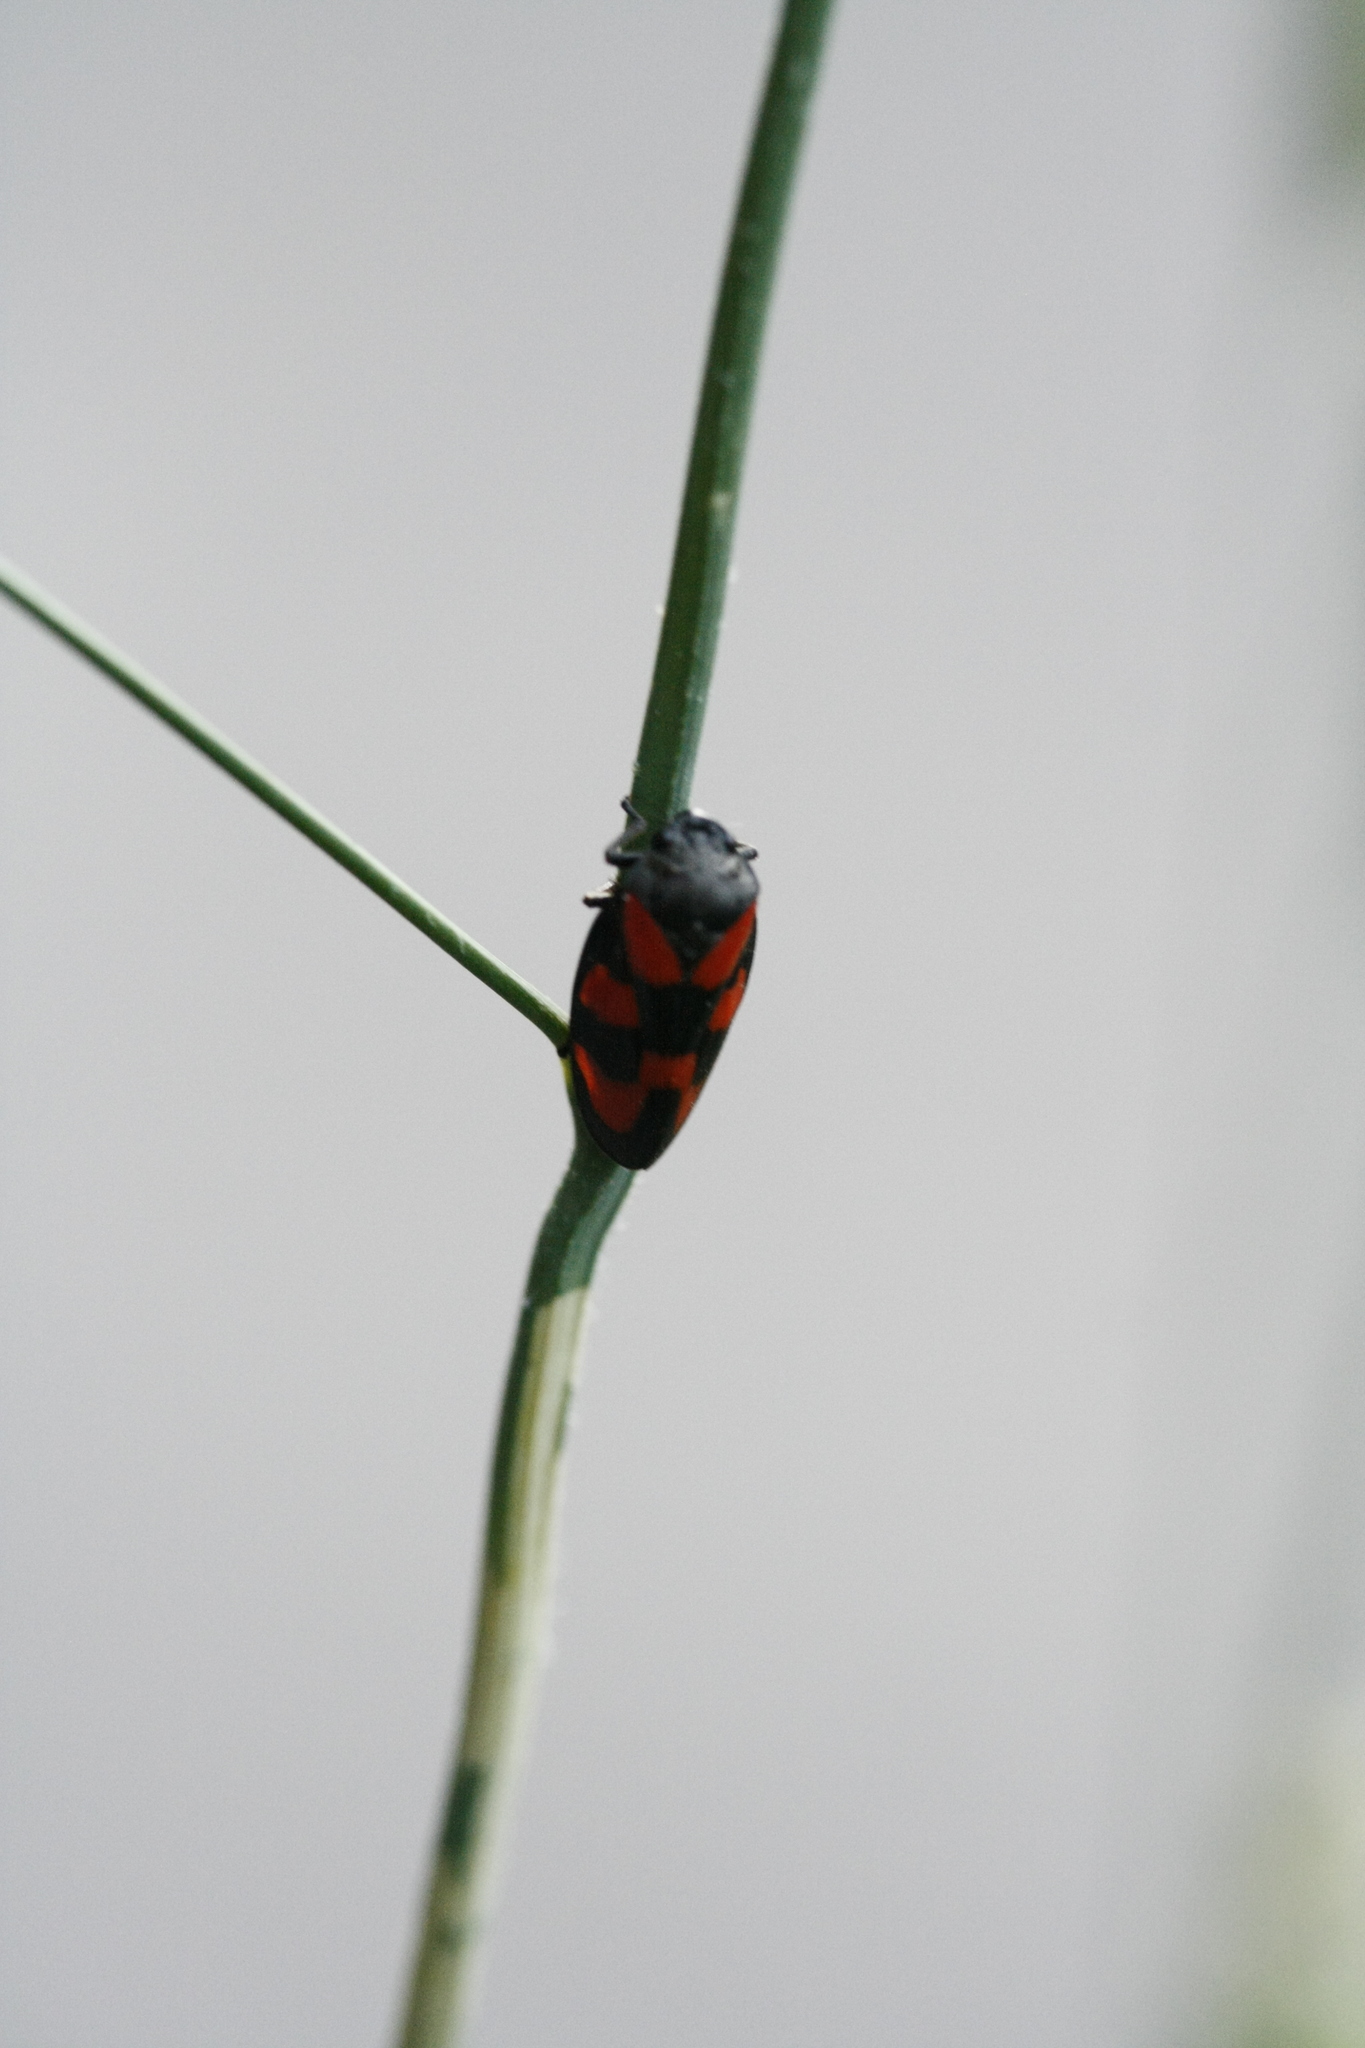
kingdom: Animalia
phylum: Arthropoda
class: Insecta
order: Hemiptera
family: Cercopidae
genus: Cercopis
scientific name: Cercopis vulnerata
